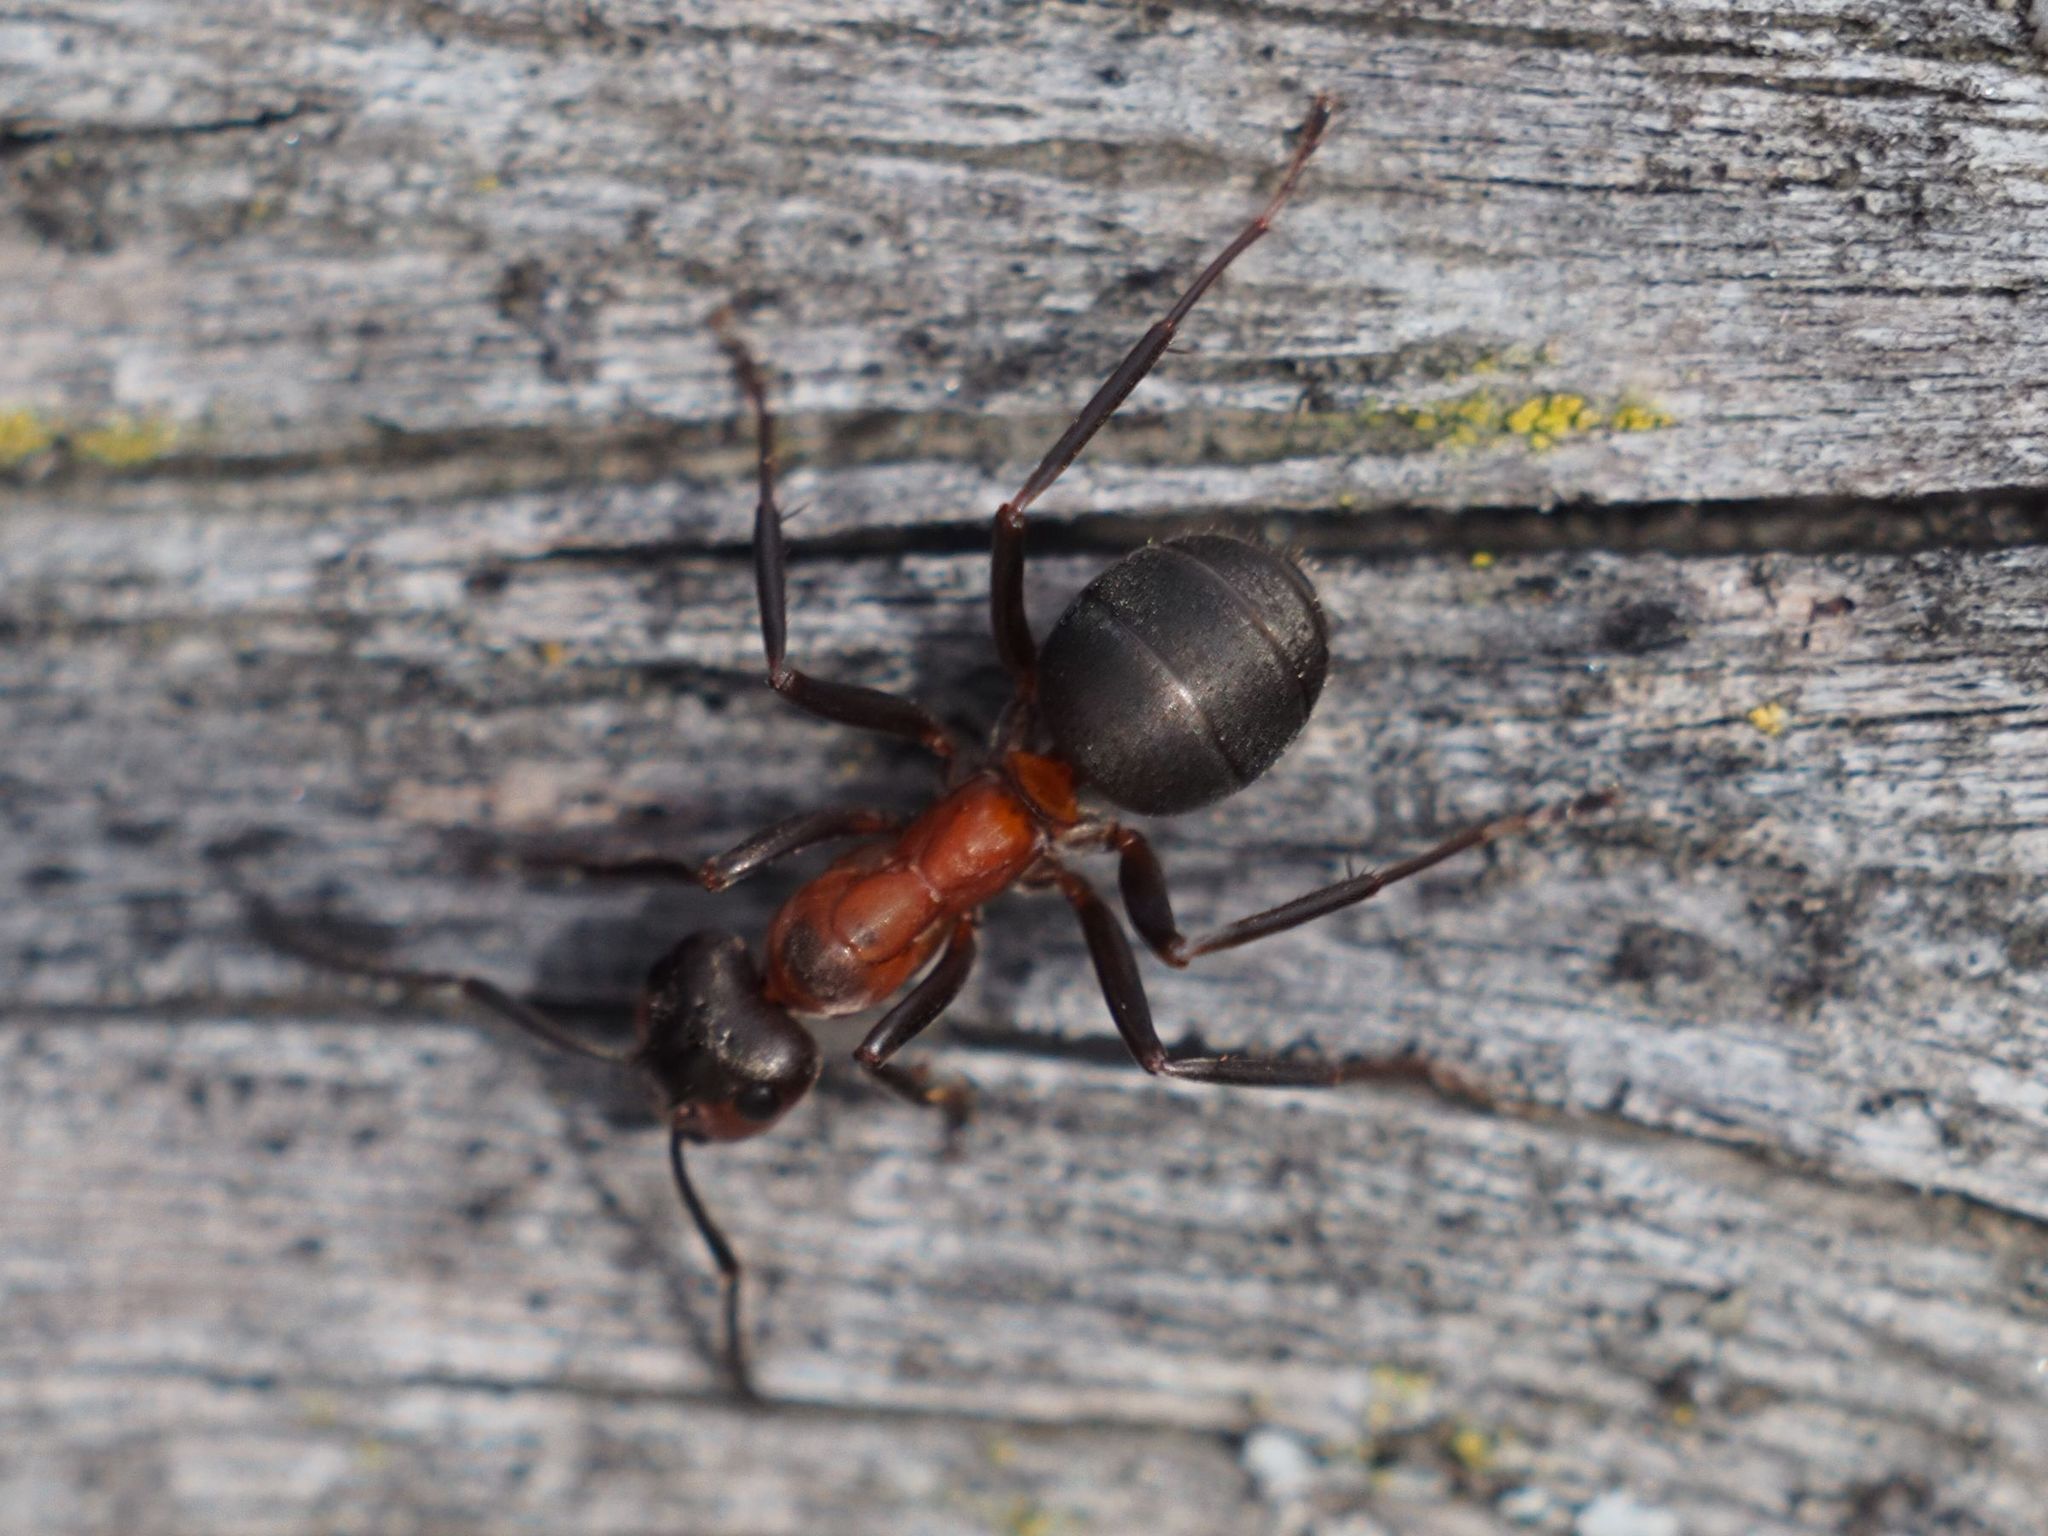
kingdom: Animalia
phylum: Arthropoda
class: Insecta
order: Hymenoptera
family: Formicidae
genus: Formica
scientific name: Formica rufa
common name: Red wood ant
